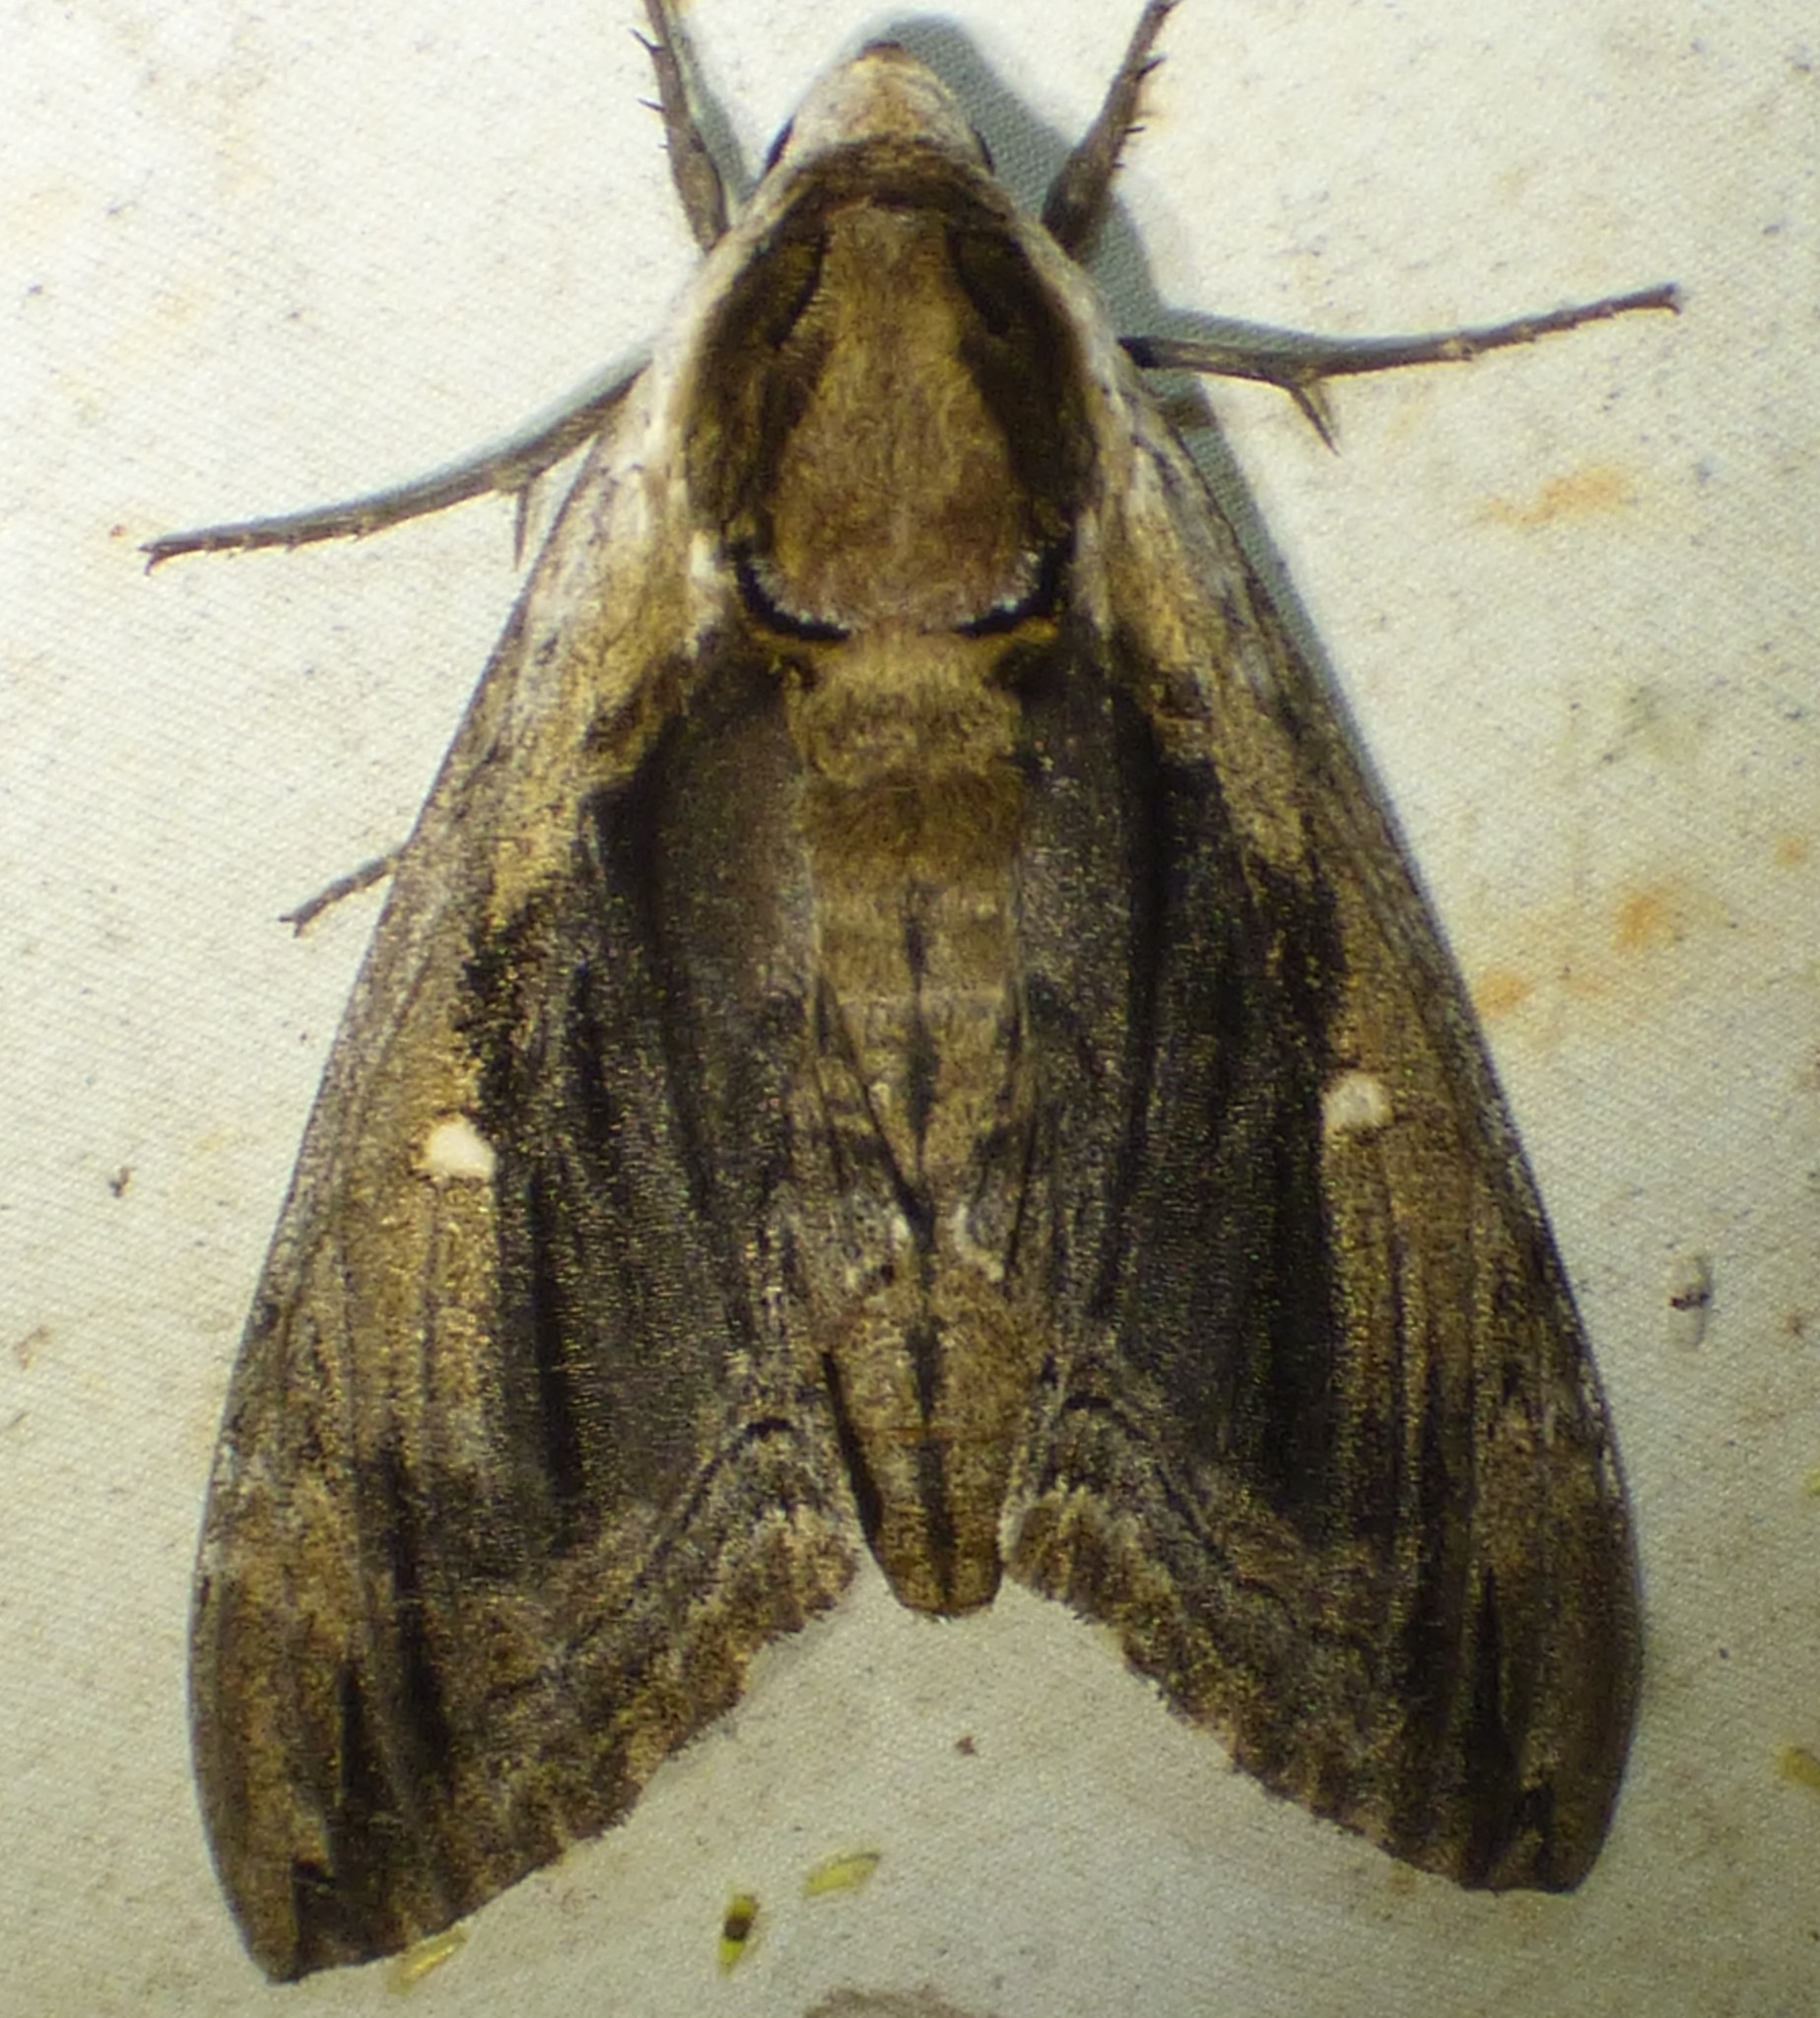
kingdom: Animalia
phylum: Arthropoda
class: Insecta
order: Lepidoptera
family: Sphingidae
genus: Ceratomia
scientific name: Ceratomia amyntor
